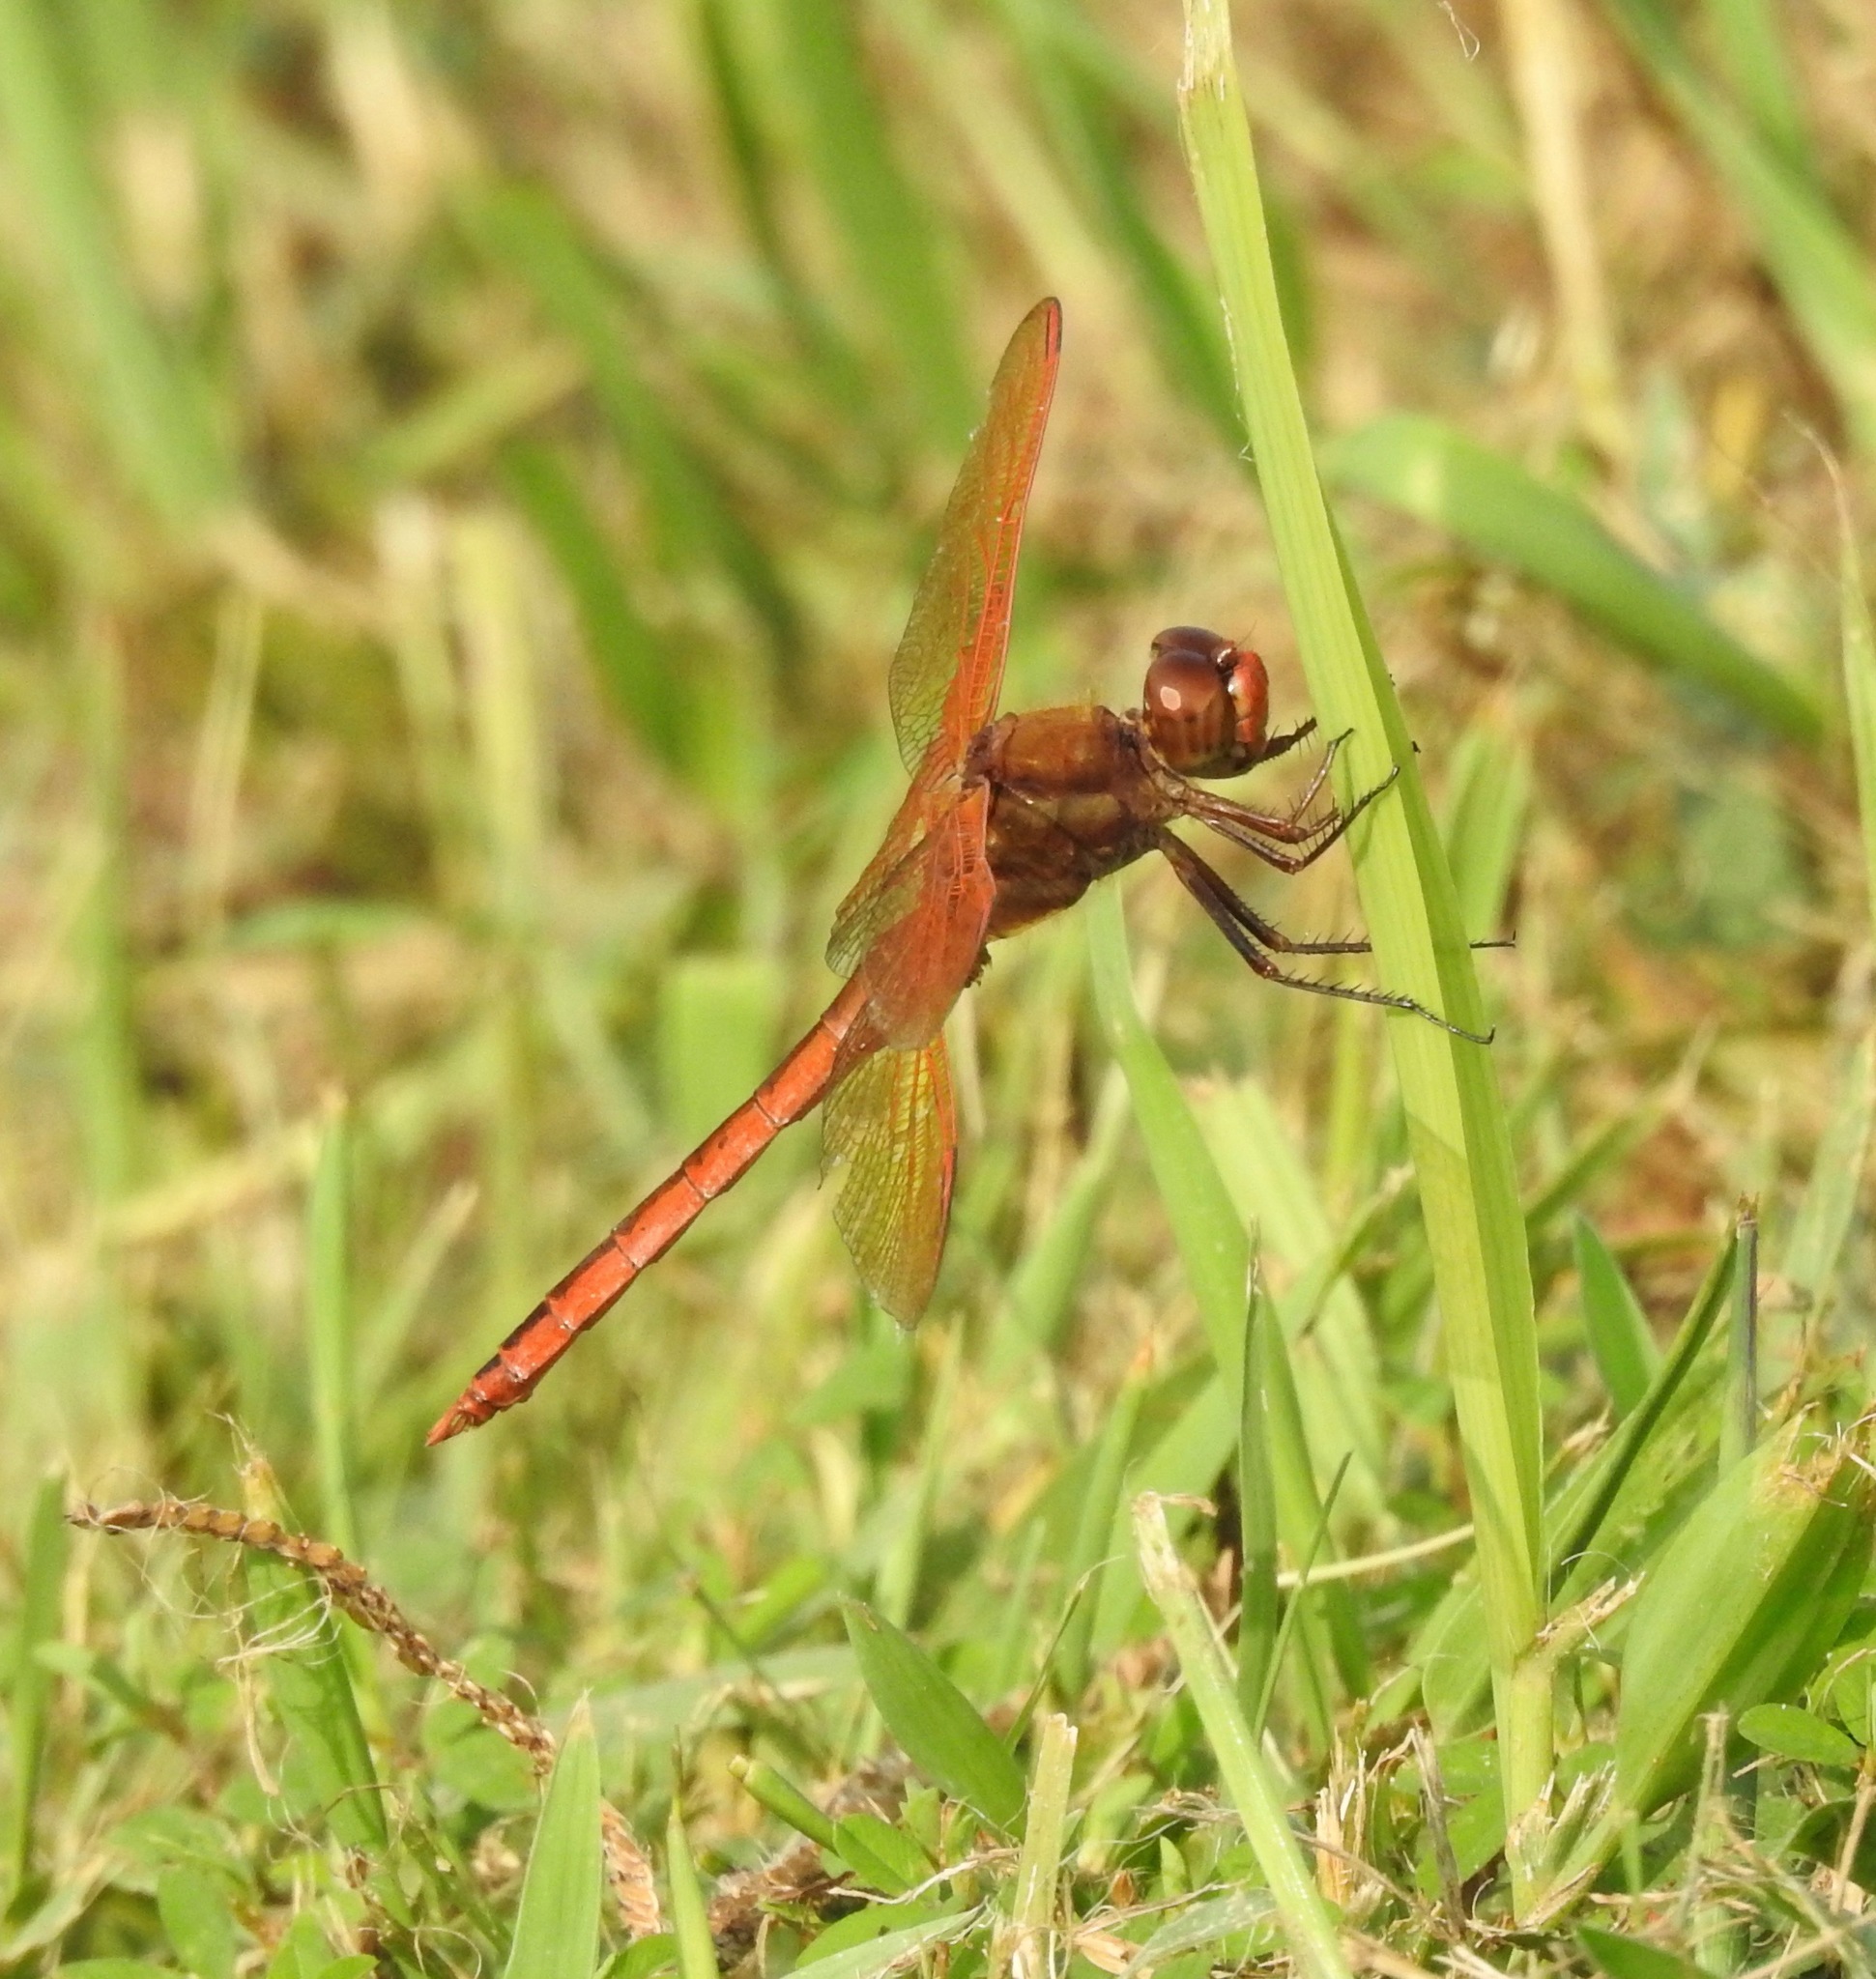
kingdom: Animalia
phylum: Arthropoda
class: Insecta
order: Odonata
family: Libellulidae
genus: Libellula
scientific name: Libellula auripennis
